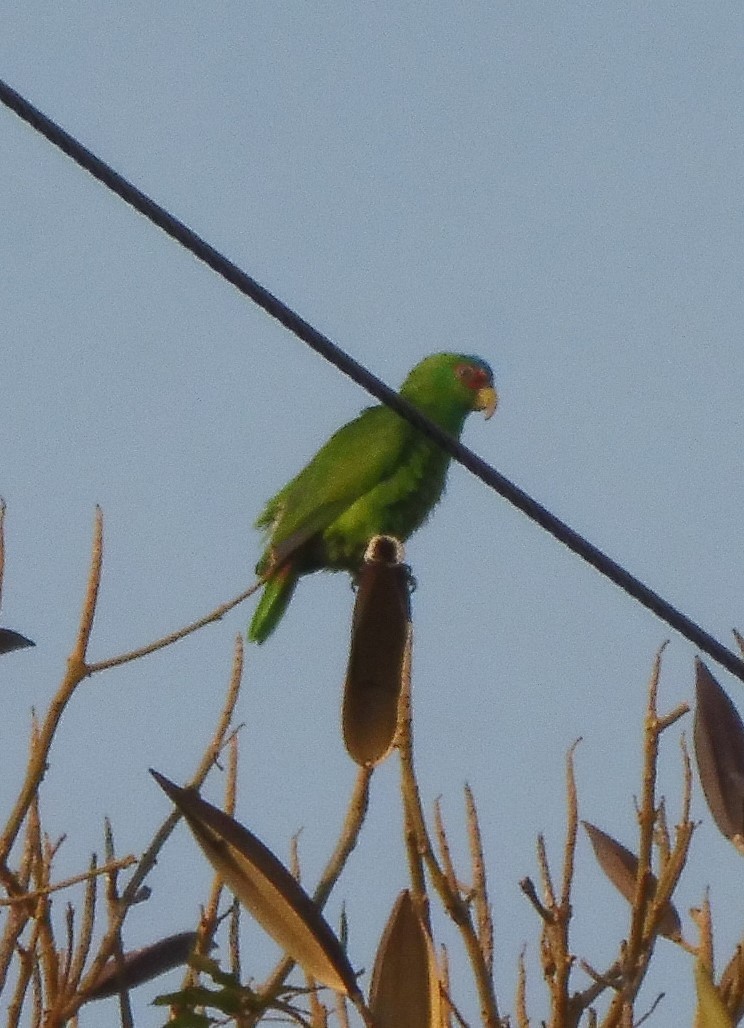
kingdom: Animalia
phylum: Chordata
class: Aves
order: Psittaciformes
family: Psittacidae
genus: Amazona
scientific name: Amazona albifrons
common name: White-fronted amazon
